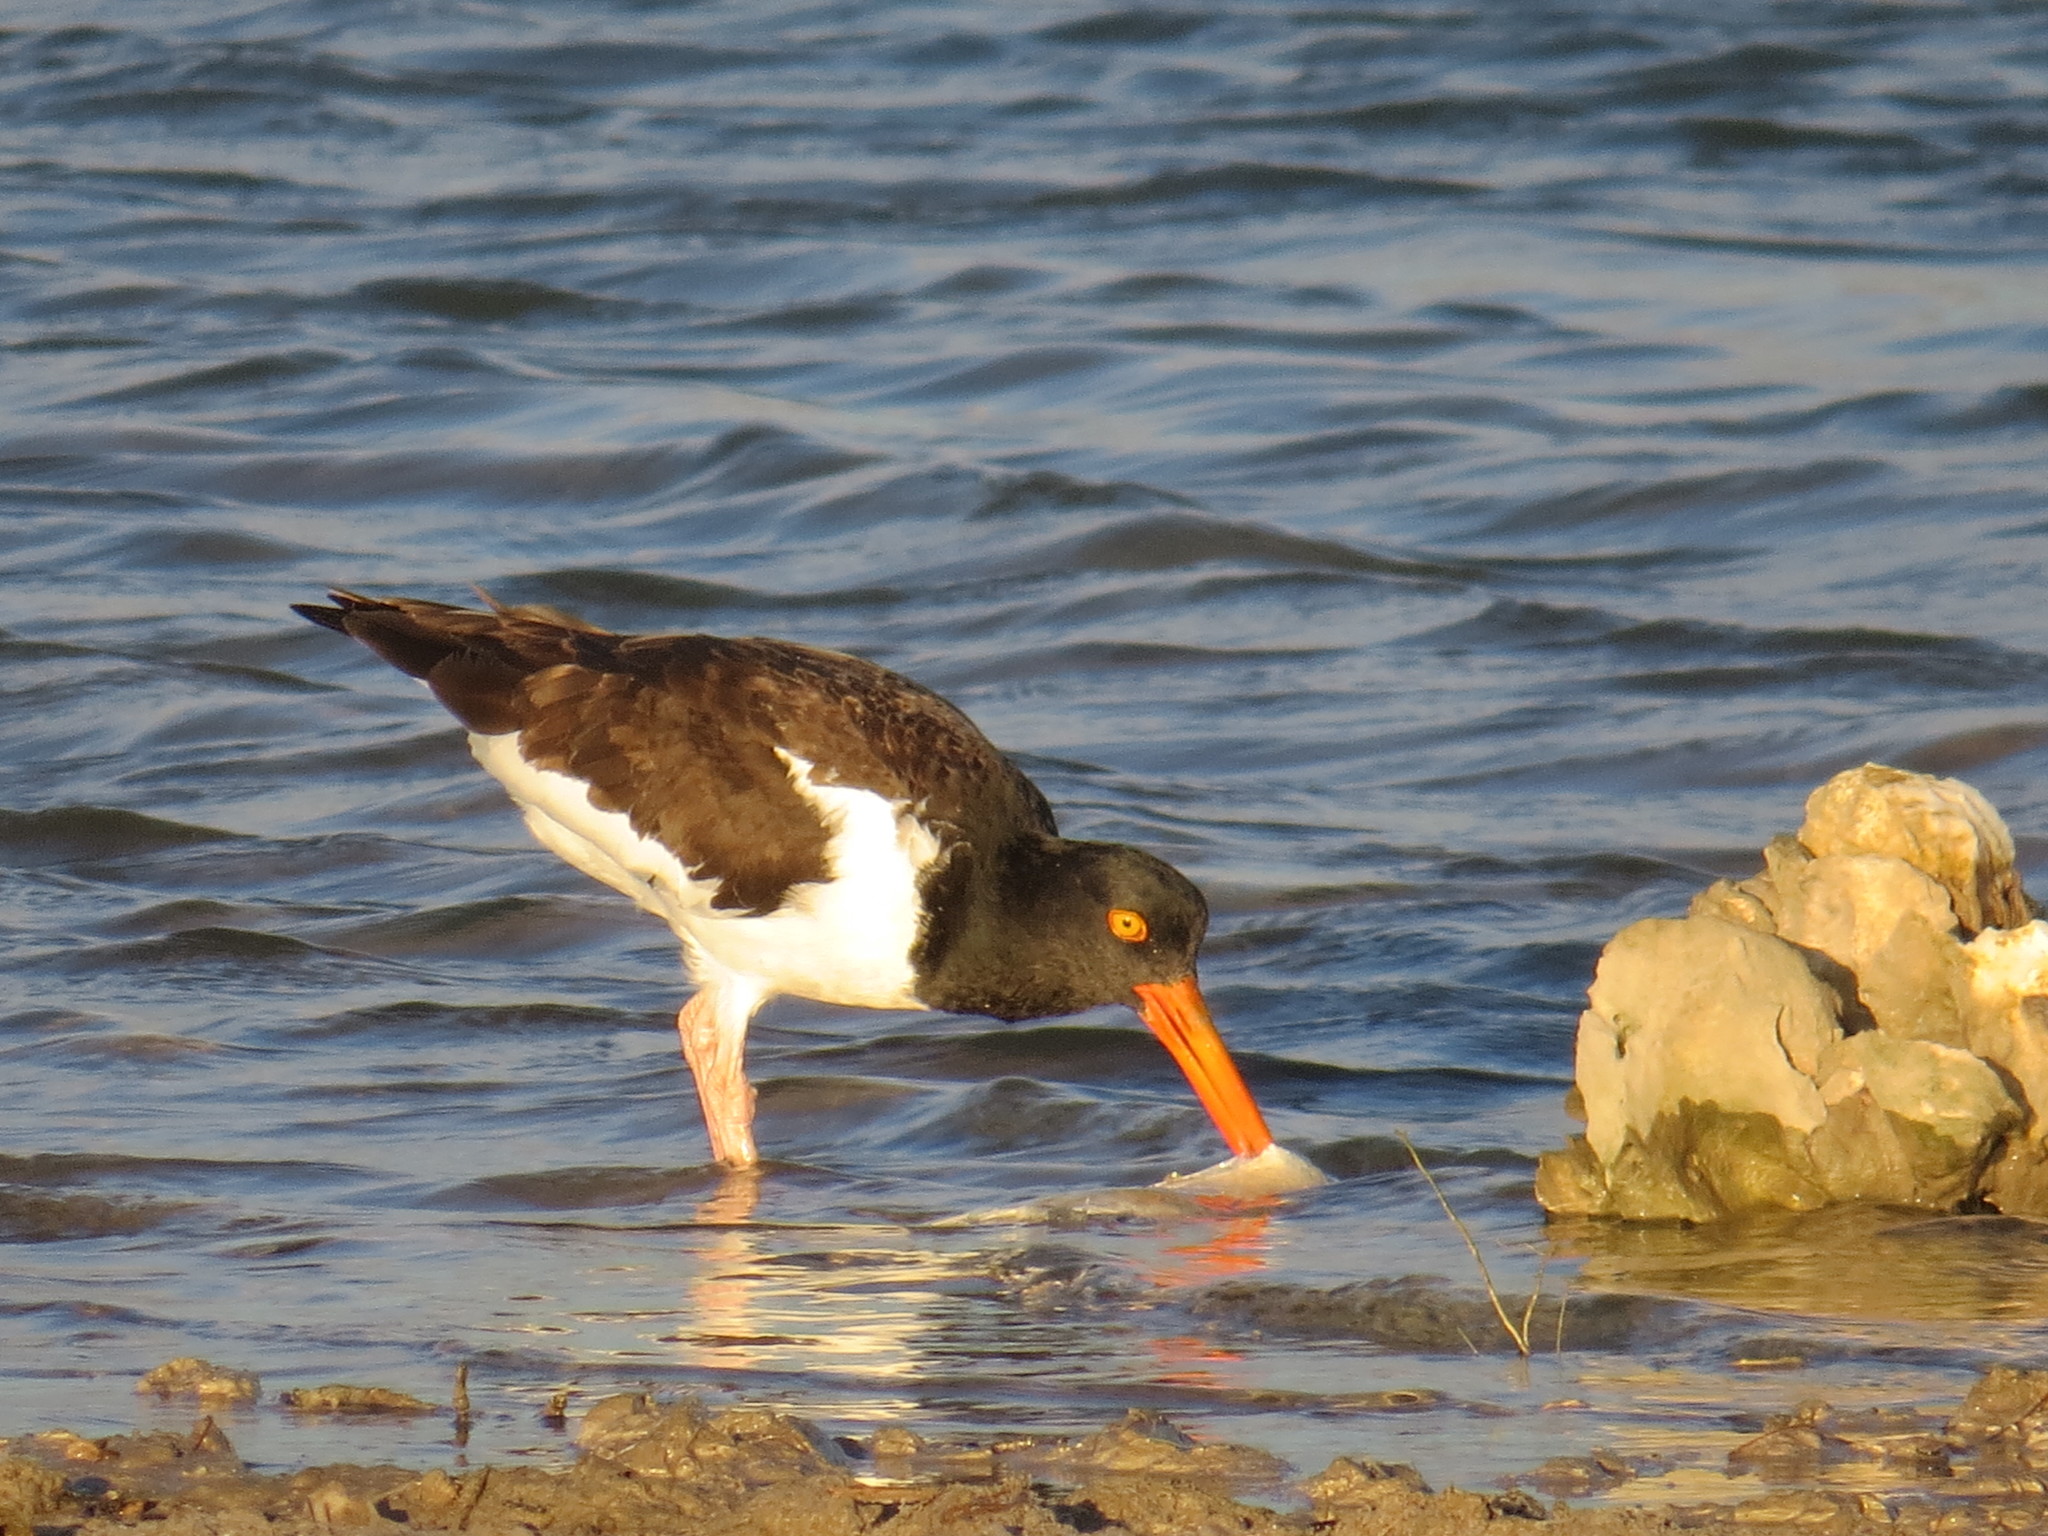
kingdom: Animalia
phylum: Chordata
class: Aves
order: Charadriiformes
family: Haematopodidae
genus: Haematopus
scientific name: Haematopus palliatus
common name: American oystercatcher
